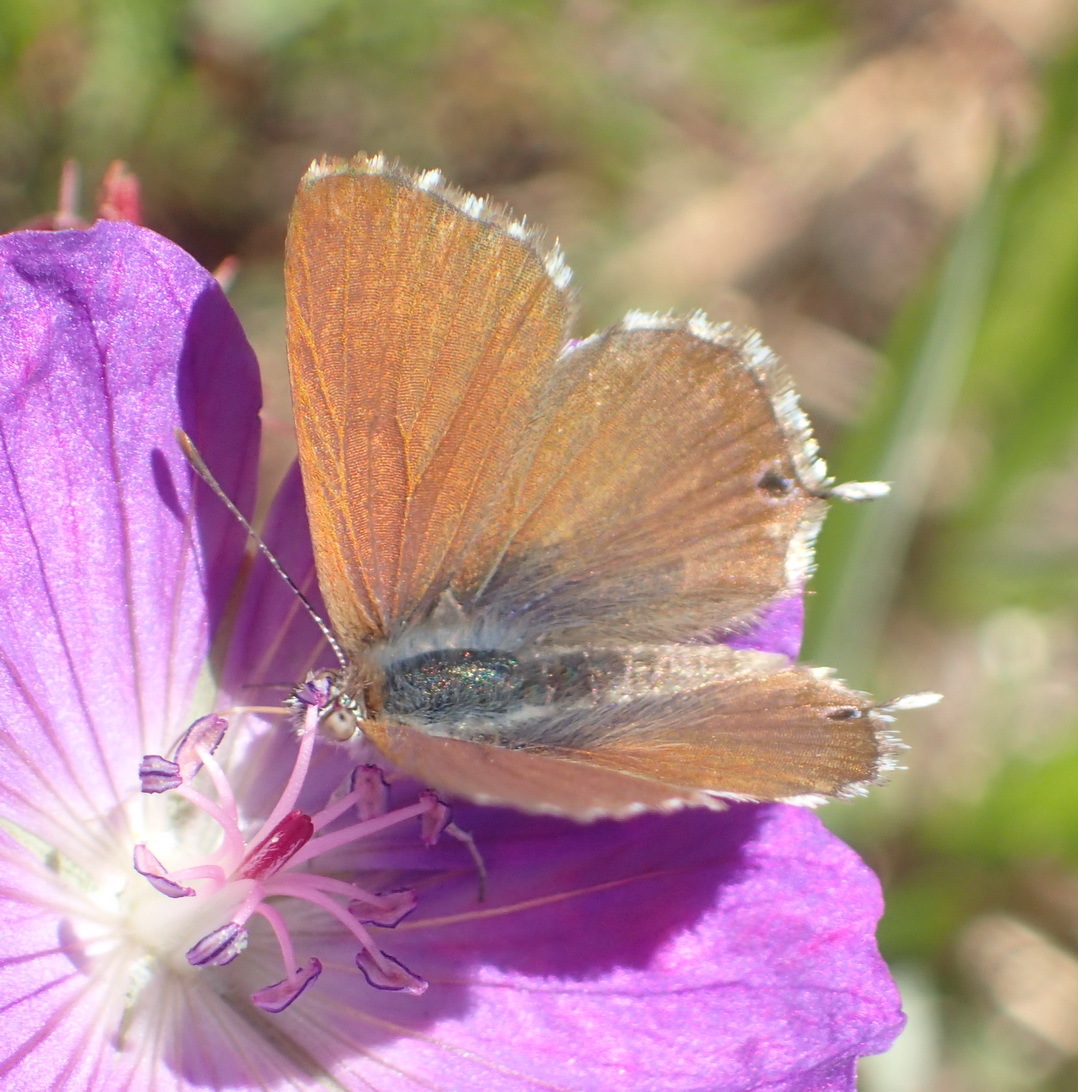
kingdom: Animalia
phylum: Arthropoda
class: Insecta
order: Lepidoptera
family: Lycaenidae
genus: Cacyreus
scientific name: Cacyreus fracta
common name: Water bronze
